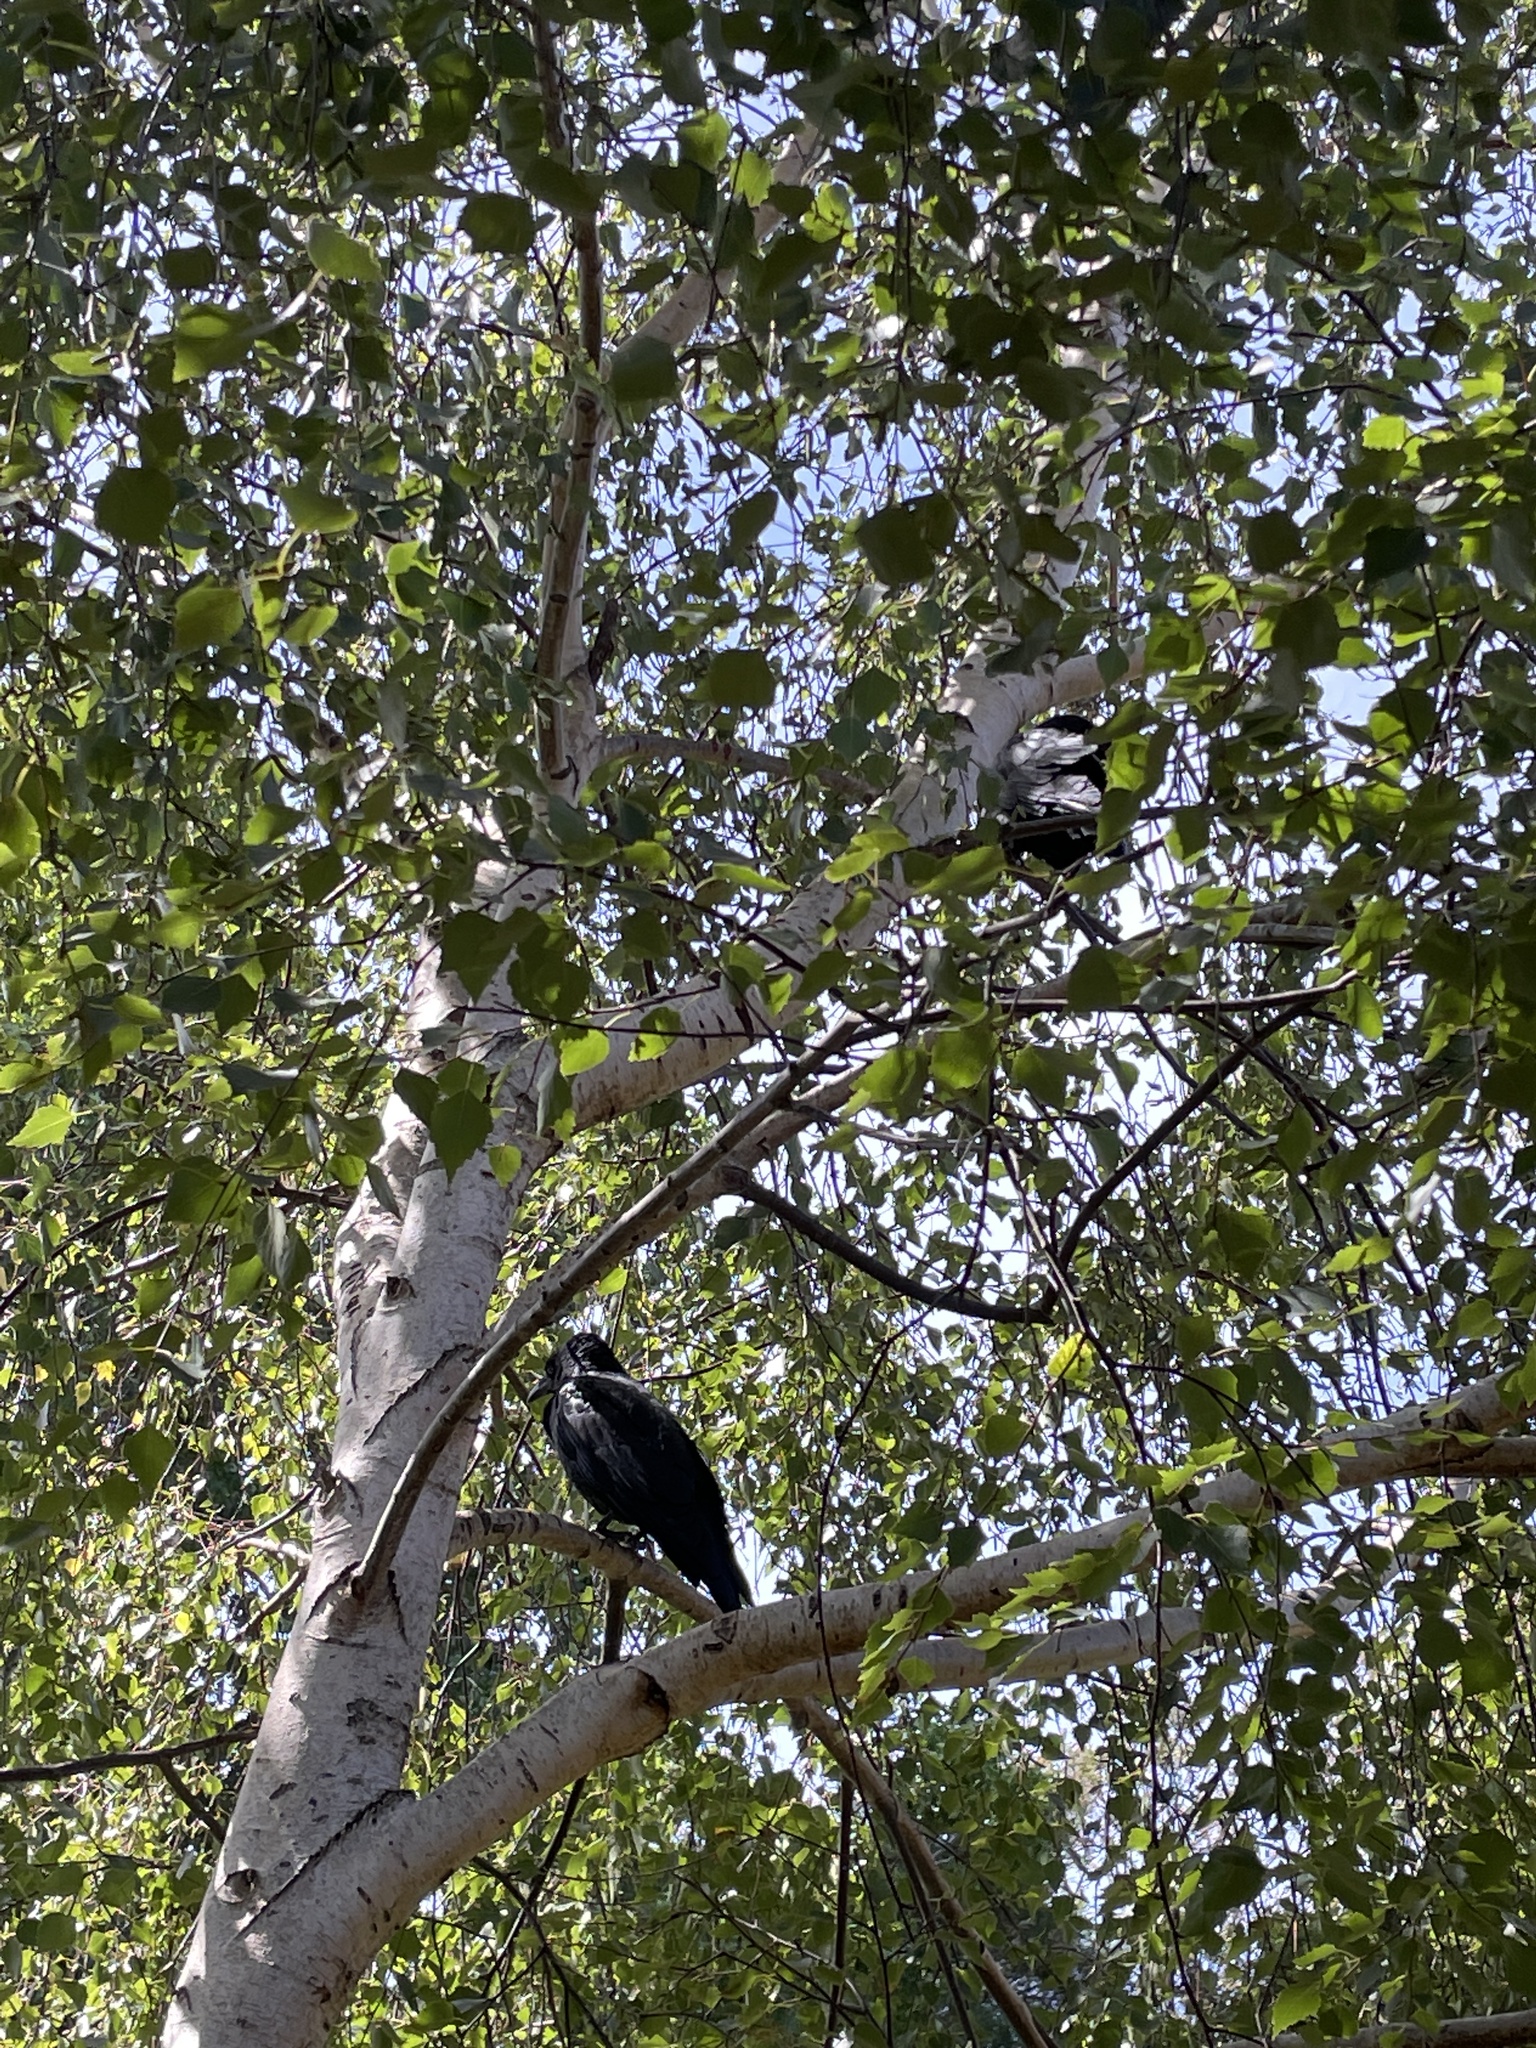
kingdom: Animalia
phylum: Chordata
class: Aves
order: Passeriformes
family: Corvidae
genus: Corvus
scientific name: Corvus coronoides
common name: Australian raven
